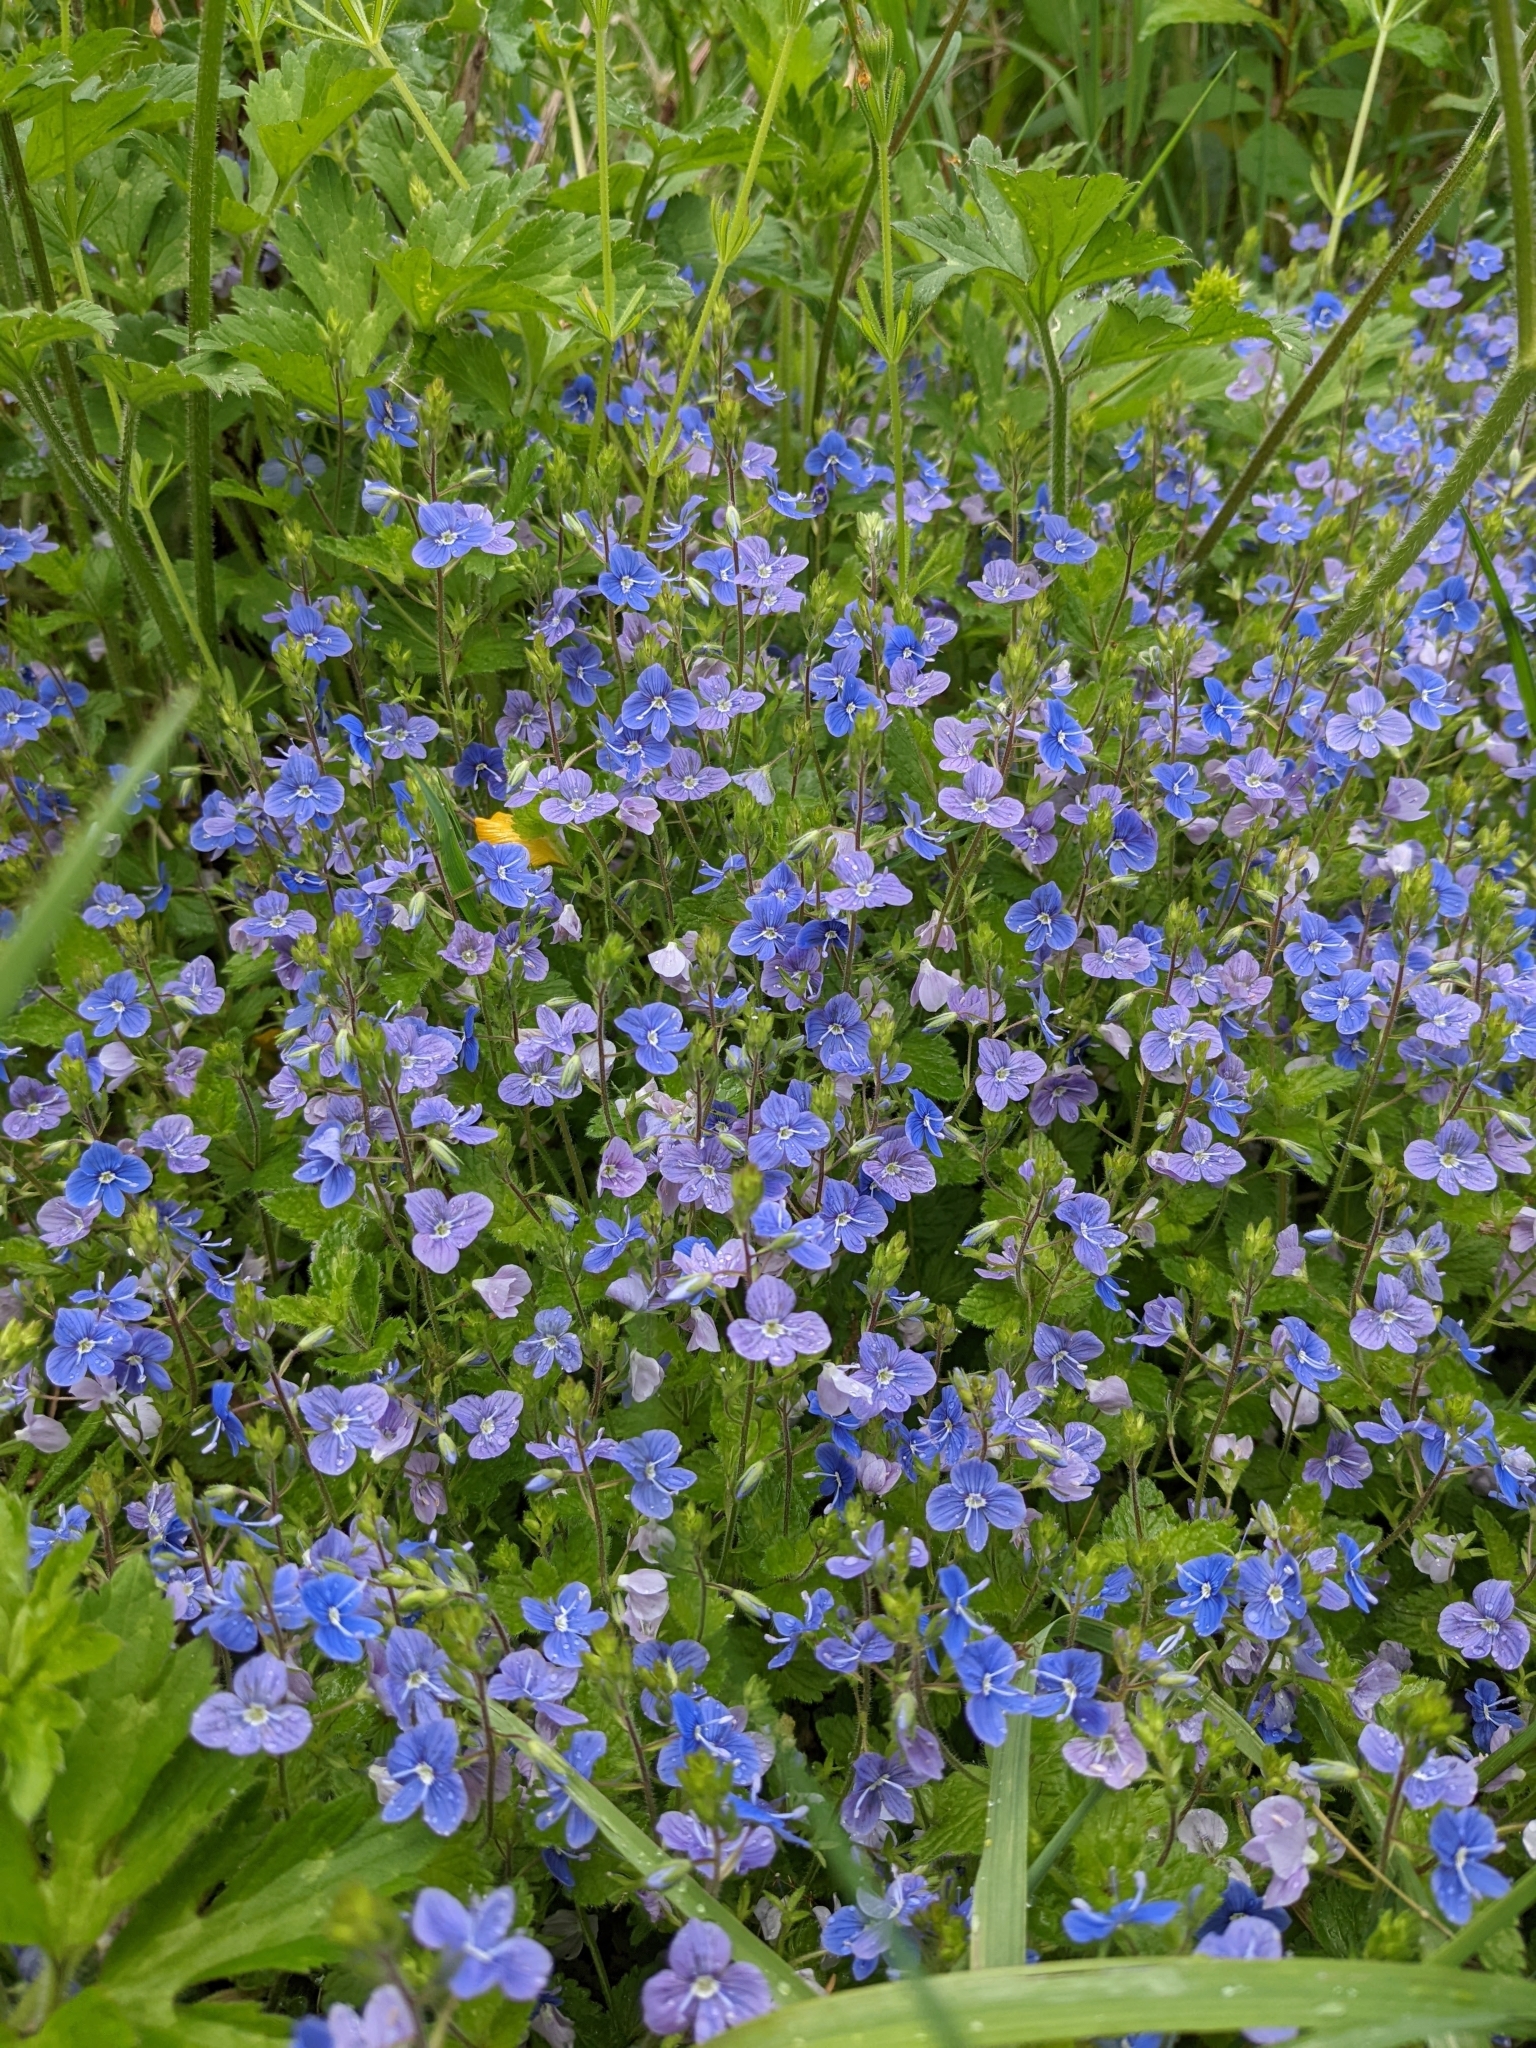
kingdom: Plantae
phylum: Tracheophyta
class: Magnoliopsida
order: Lamiales
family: Plantaginaceae
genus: Veronica
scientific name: Veronica chamaedrys
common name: Germander speedwell
